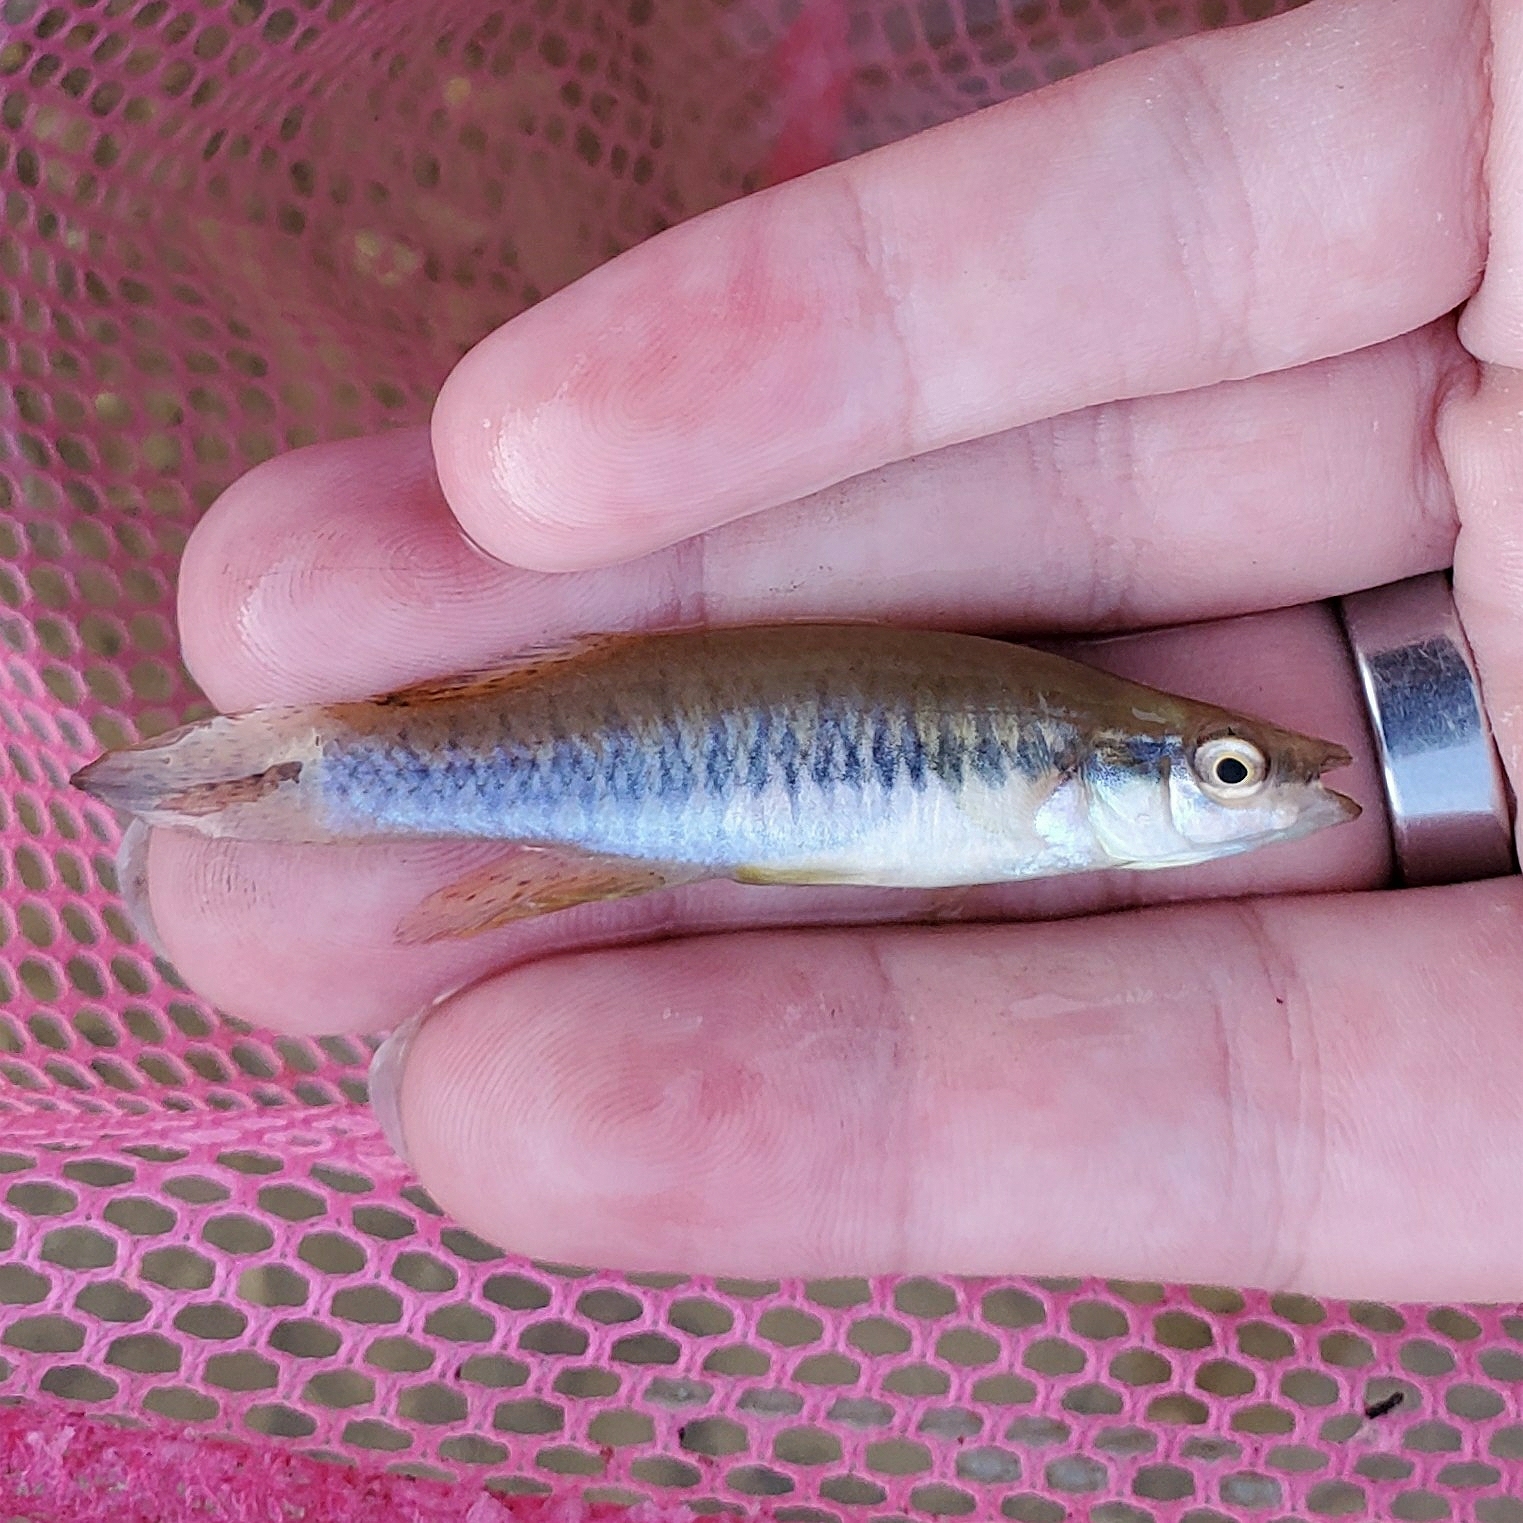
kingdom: Animalia
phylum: Chordata
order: Cyprinodontiformes
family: Fundulidae
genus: Fundulus
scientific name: Fundulus notatus
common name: Blackstripe topminnow
